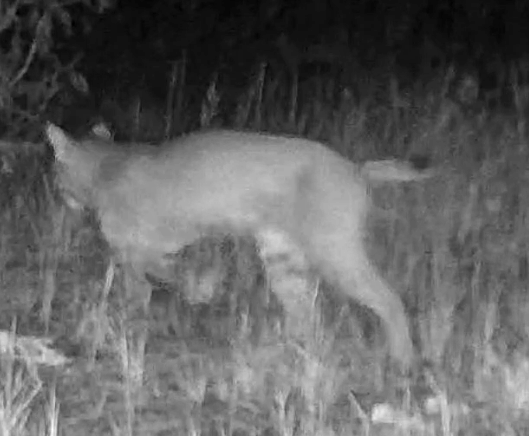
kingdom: Animalia
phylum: Chordata
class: Mammalia
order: Carnivora
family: Felidae
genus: Lynx
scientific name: Lynx rufus
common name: Bobcat
